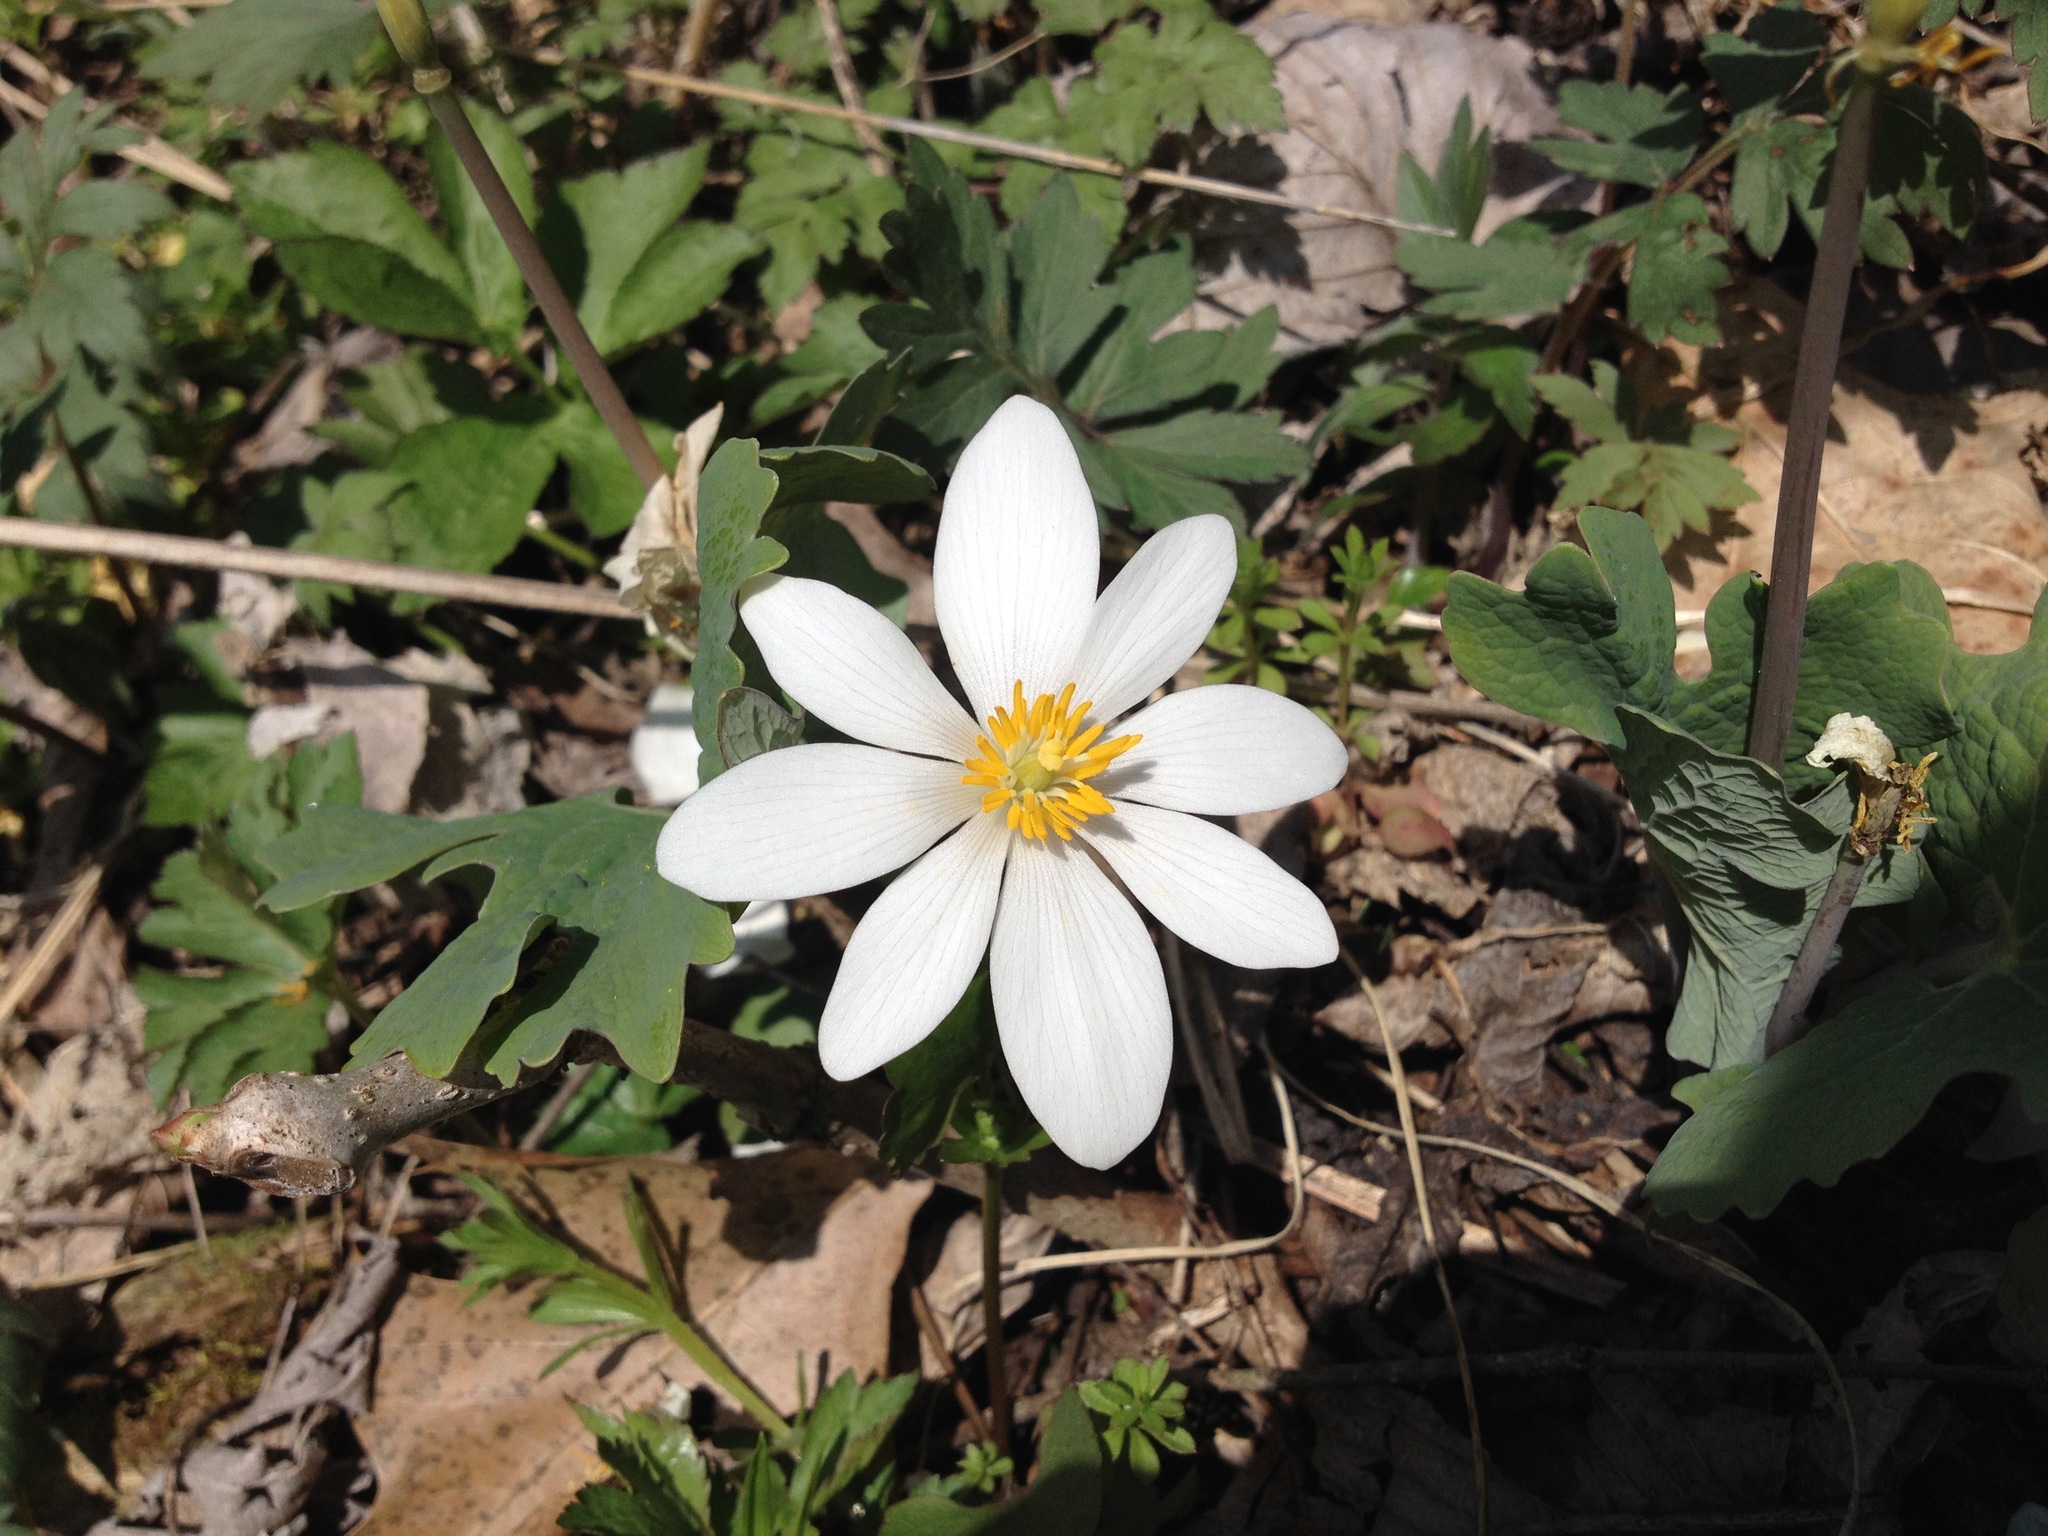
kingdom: Plantae
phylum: Tracheophyta
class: Magnoliopsida
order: Ranunculales
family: Papaveraceae
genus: Sanguinaria
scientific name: Sanguinaria canadensis
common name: Bloodroot
